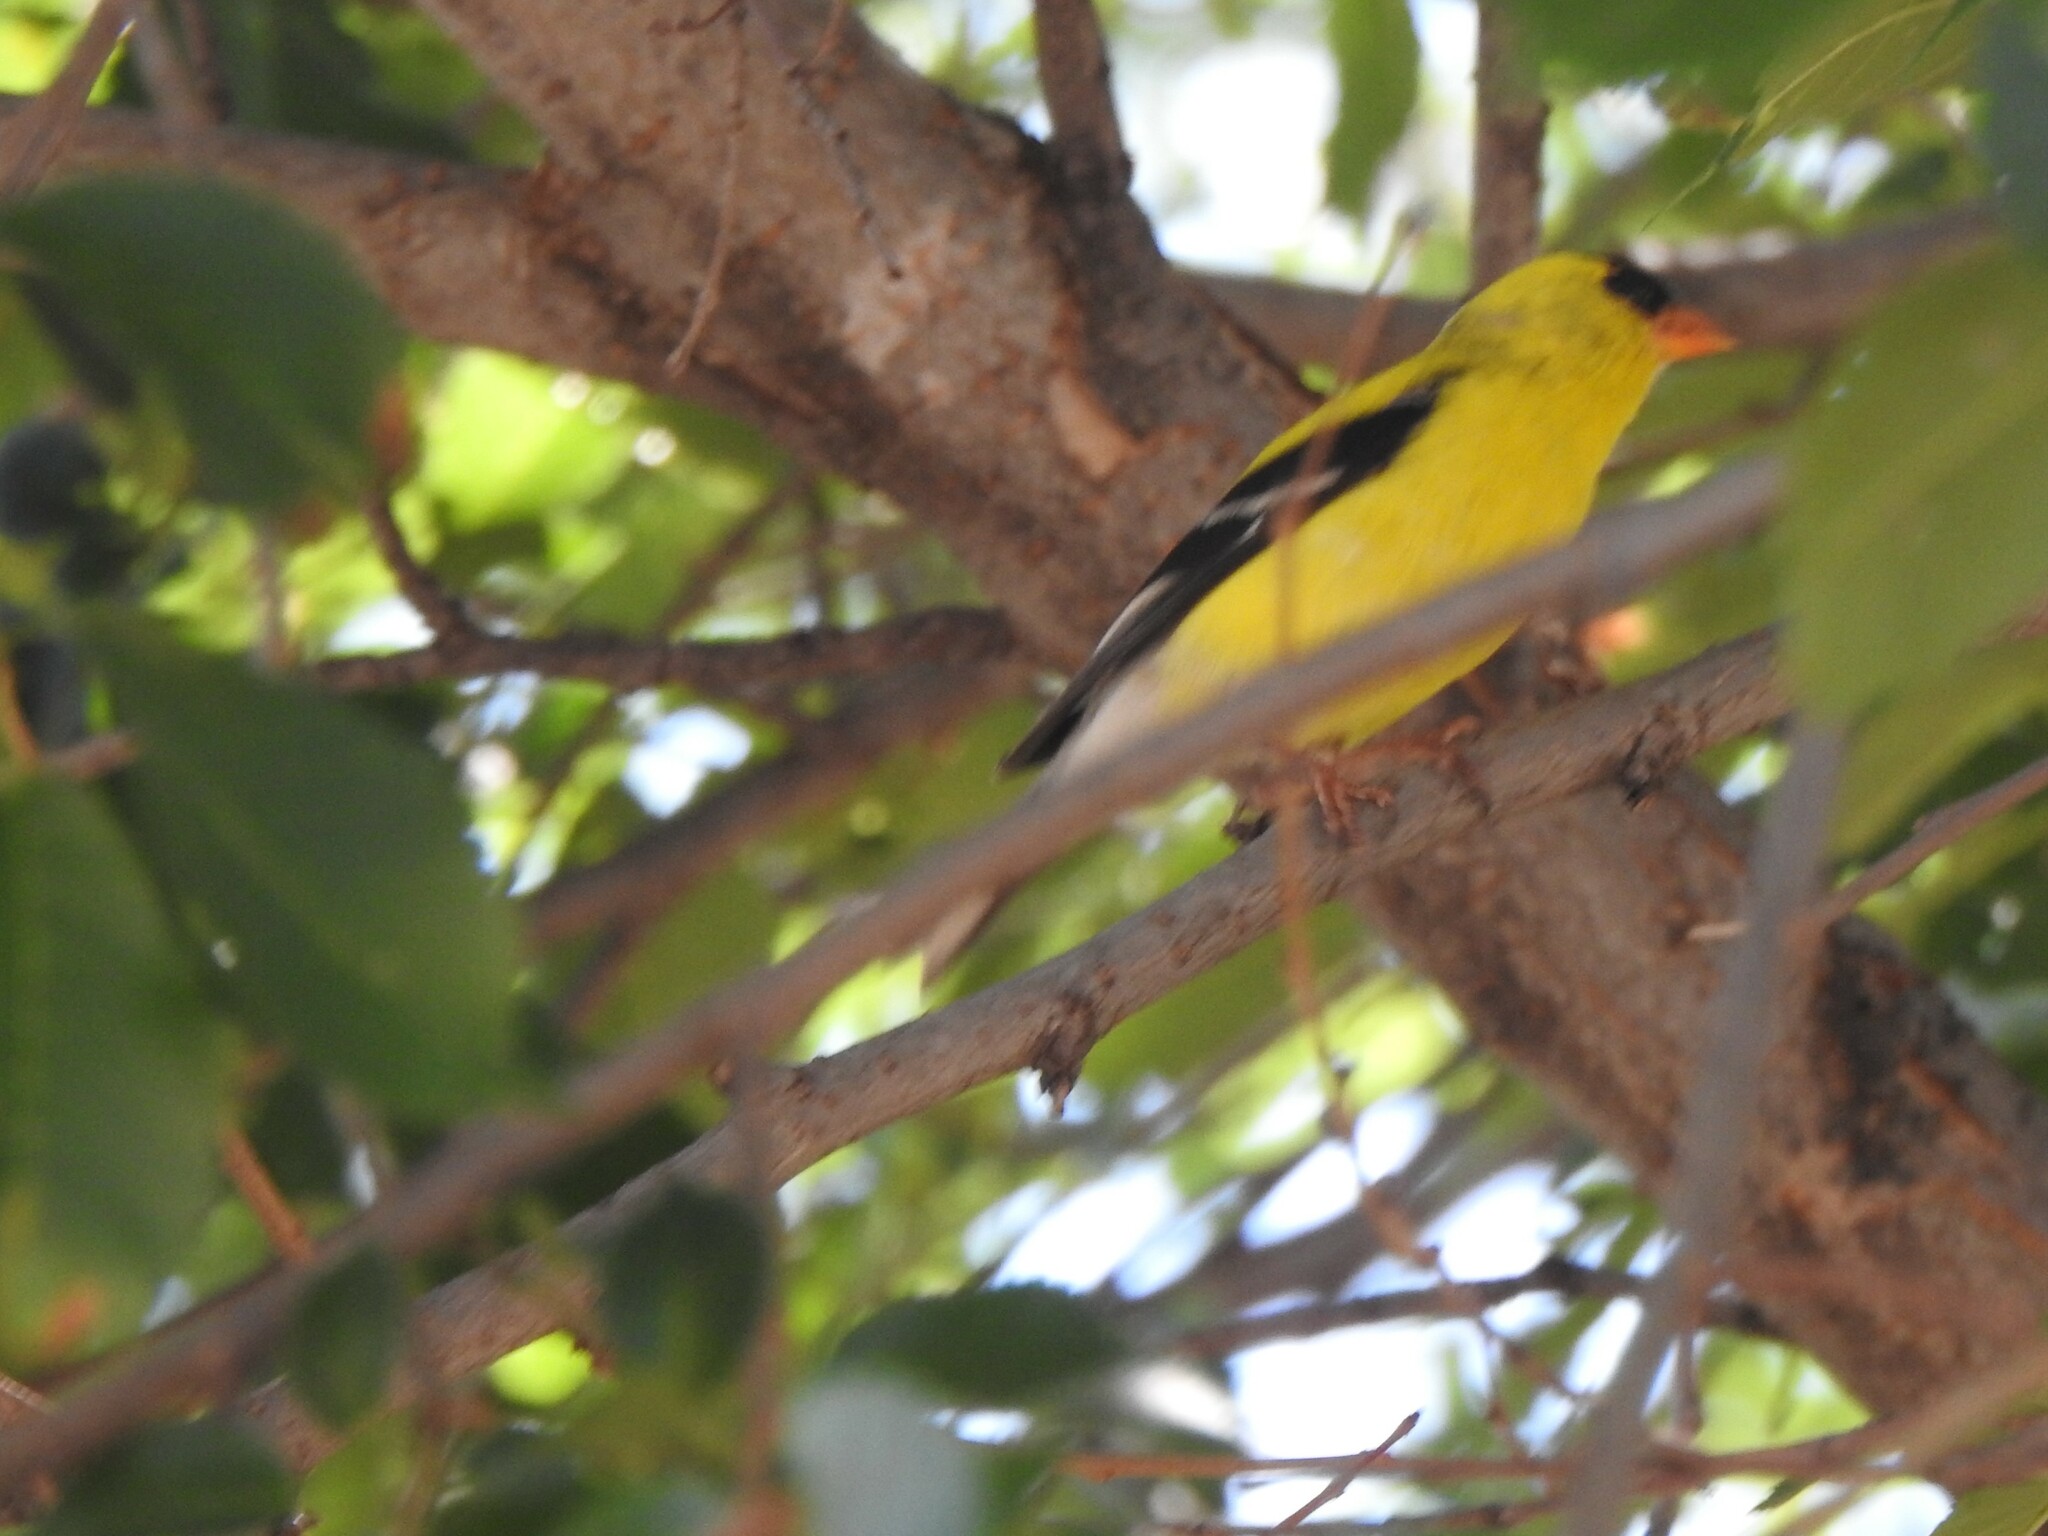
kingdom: Animalia
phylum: Chordata
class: Aves
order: Passeriformes
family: Fringillidae
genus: Spinus
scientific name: Spinus tristis
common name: American goldfinch
